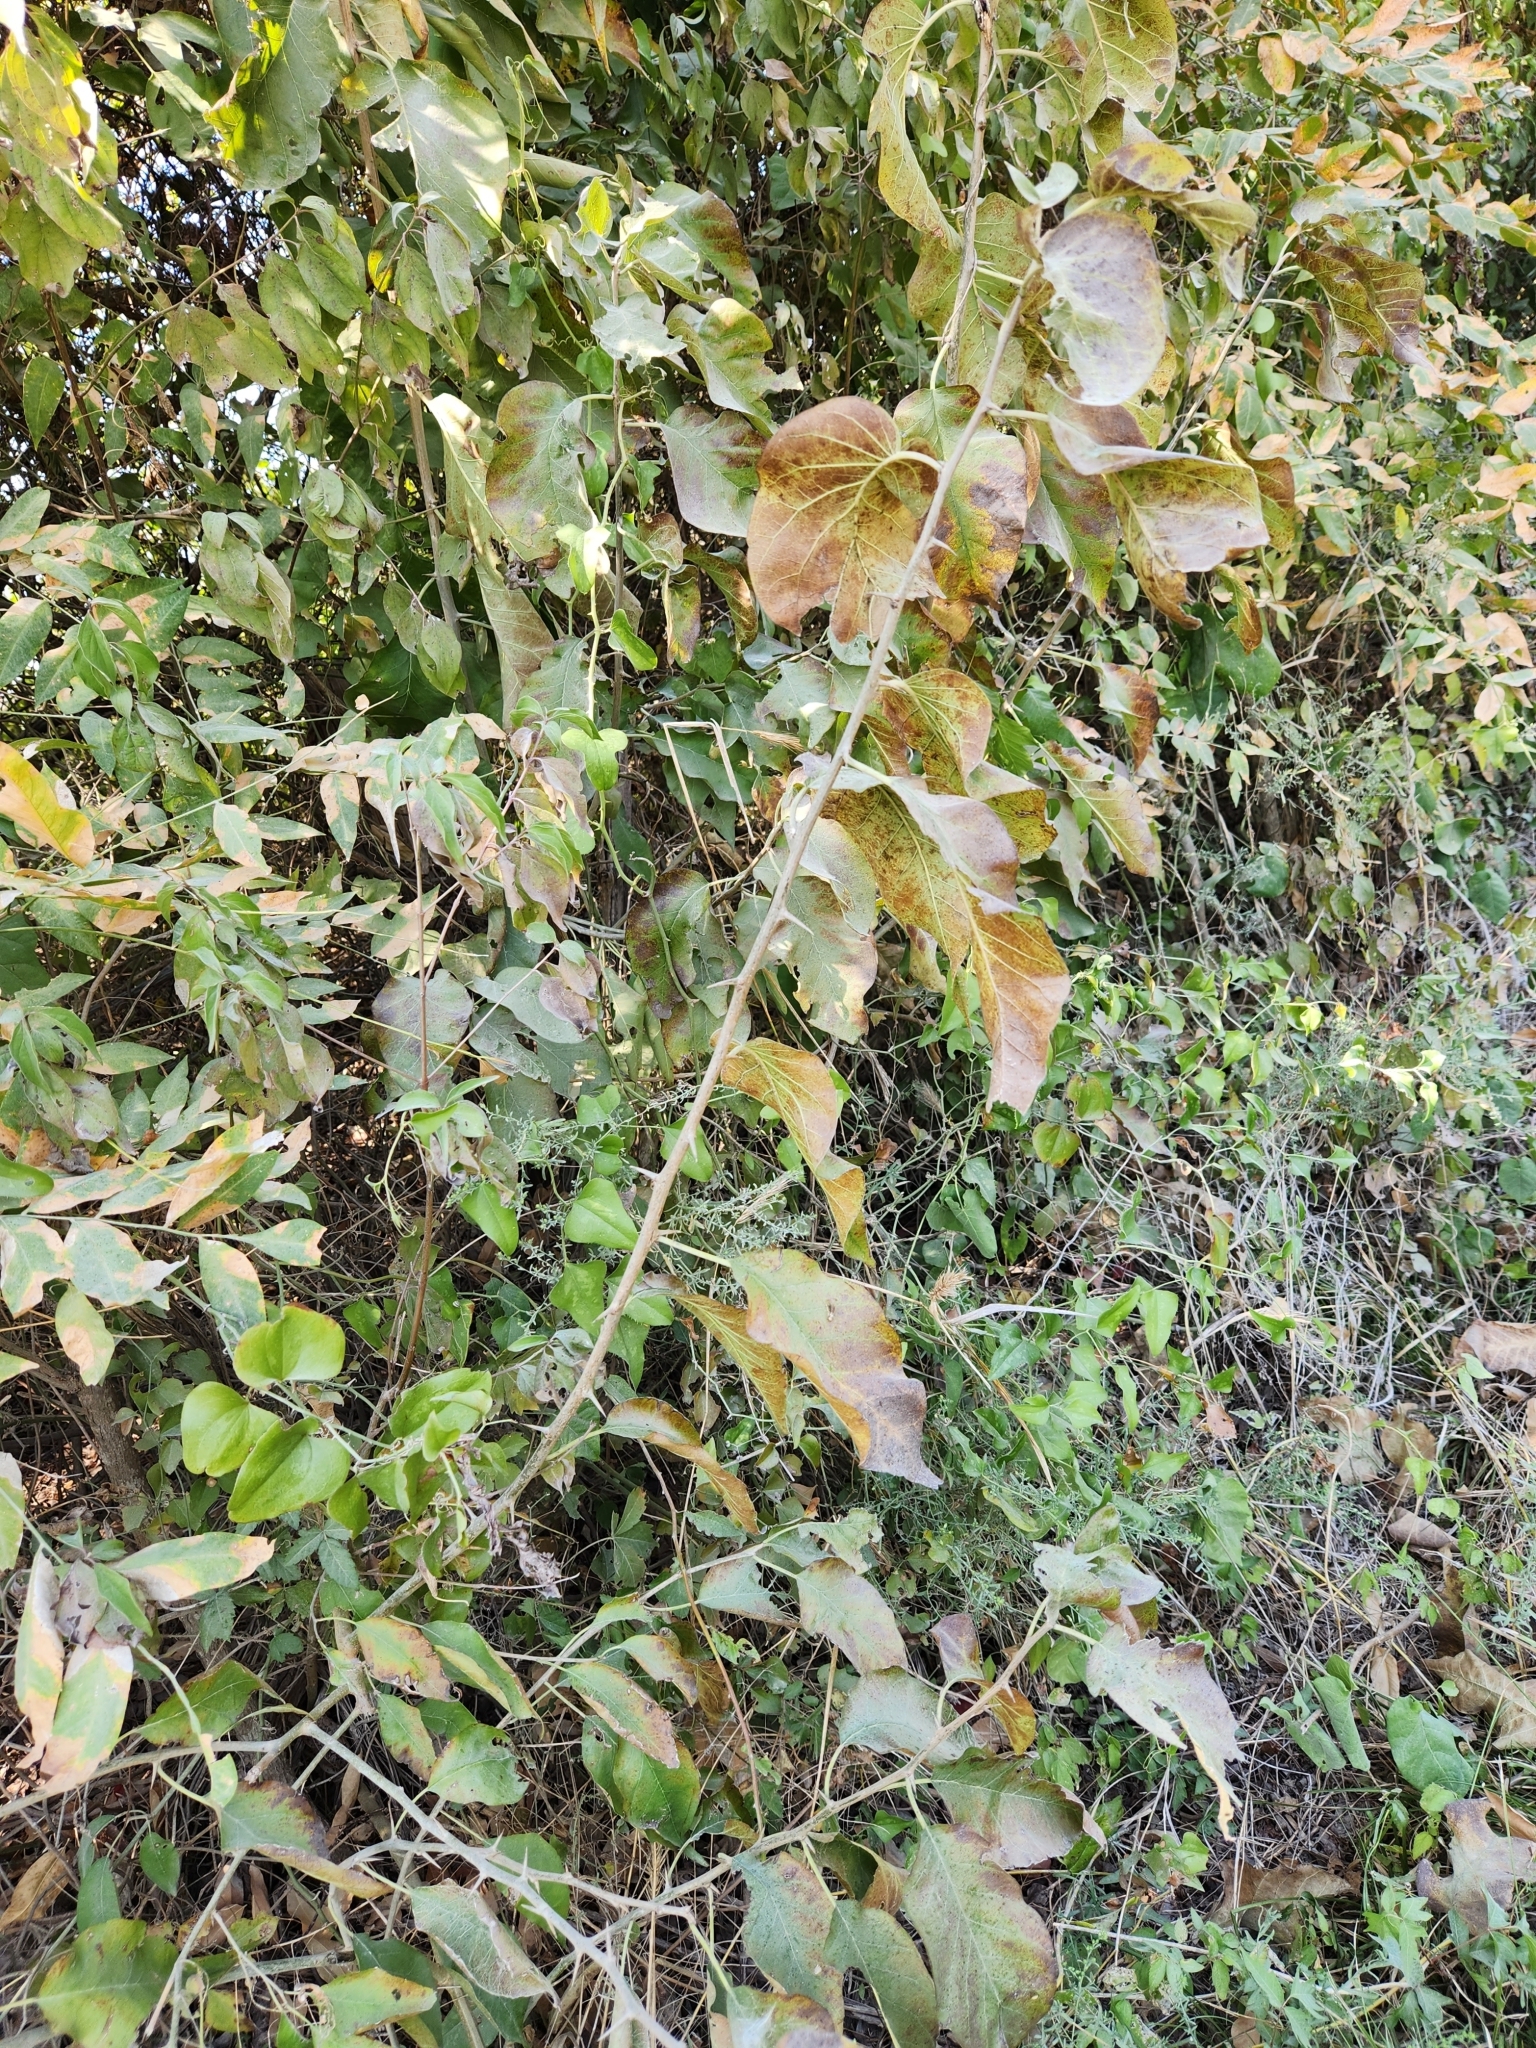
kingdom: Plantae
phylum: Tracheophyta
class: Magnoliopsida
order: Rosales
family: Moraceae
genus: Maclura
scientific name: Maclura pomifera
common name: Osage-orange
